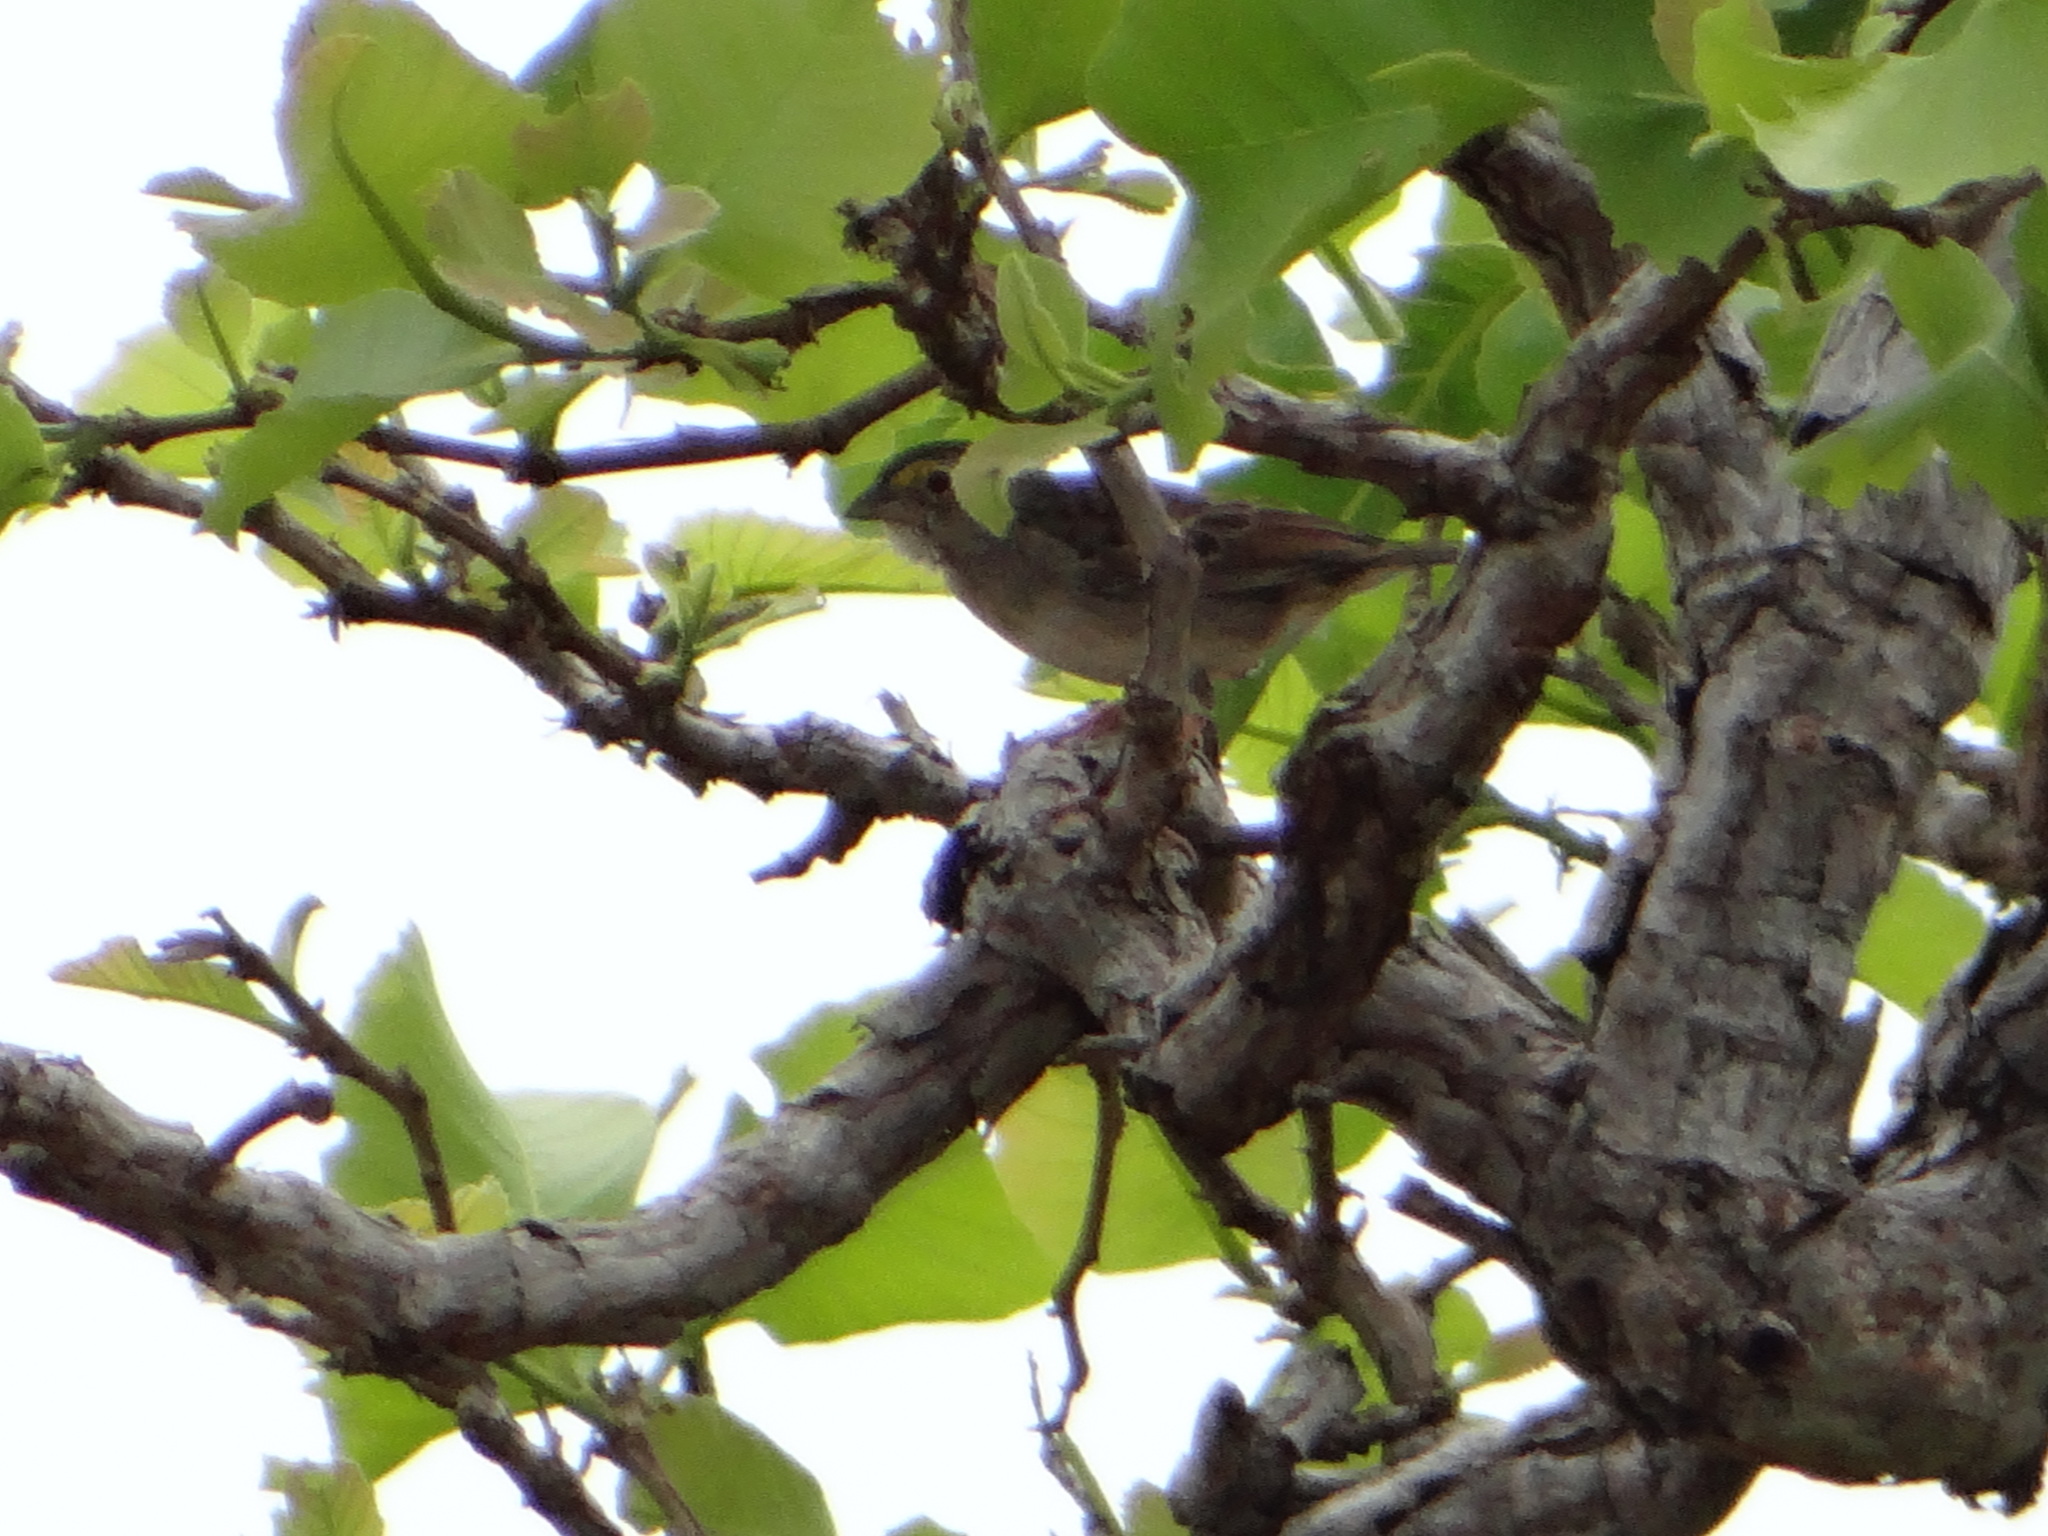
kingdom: Animalia
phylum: Chordata
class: Aves
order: Passeriformes
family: Passerellidae
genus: Ammodramus
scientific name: Ammodramus humeralis
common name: Grassland sparrow
